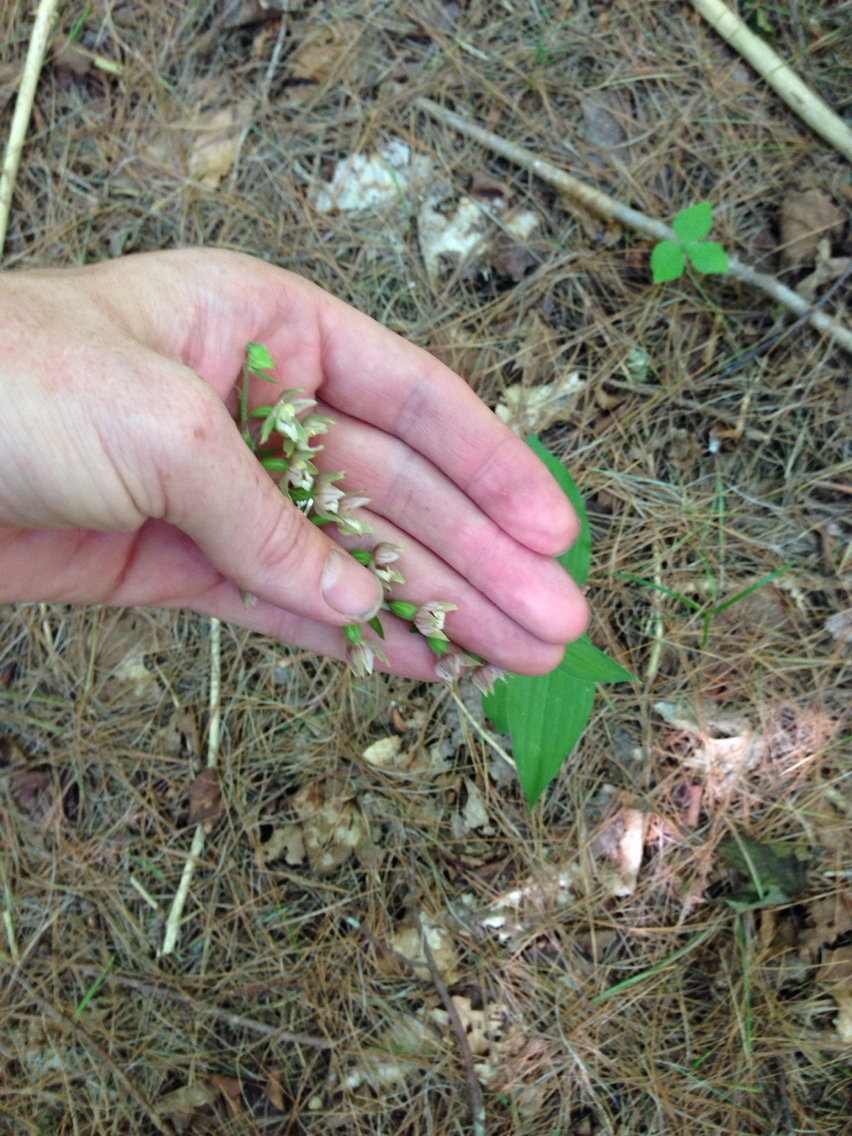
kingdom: Plantae
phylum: Tracheophyta
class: Liliopsida
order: Asparagales
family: Orchidaceae
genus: Epipactis
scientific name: Epipactis helleborine
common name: Broad-leaved helleborine
